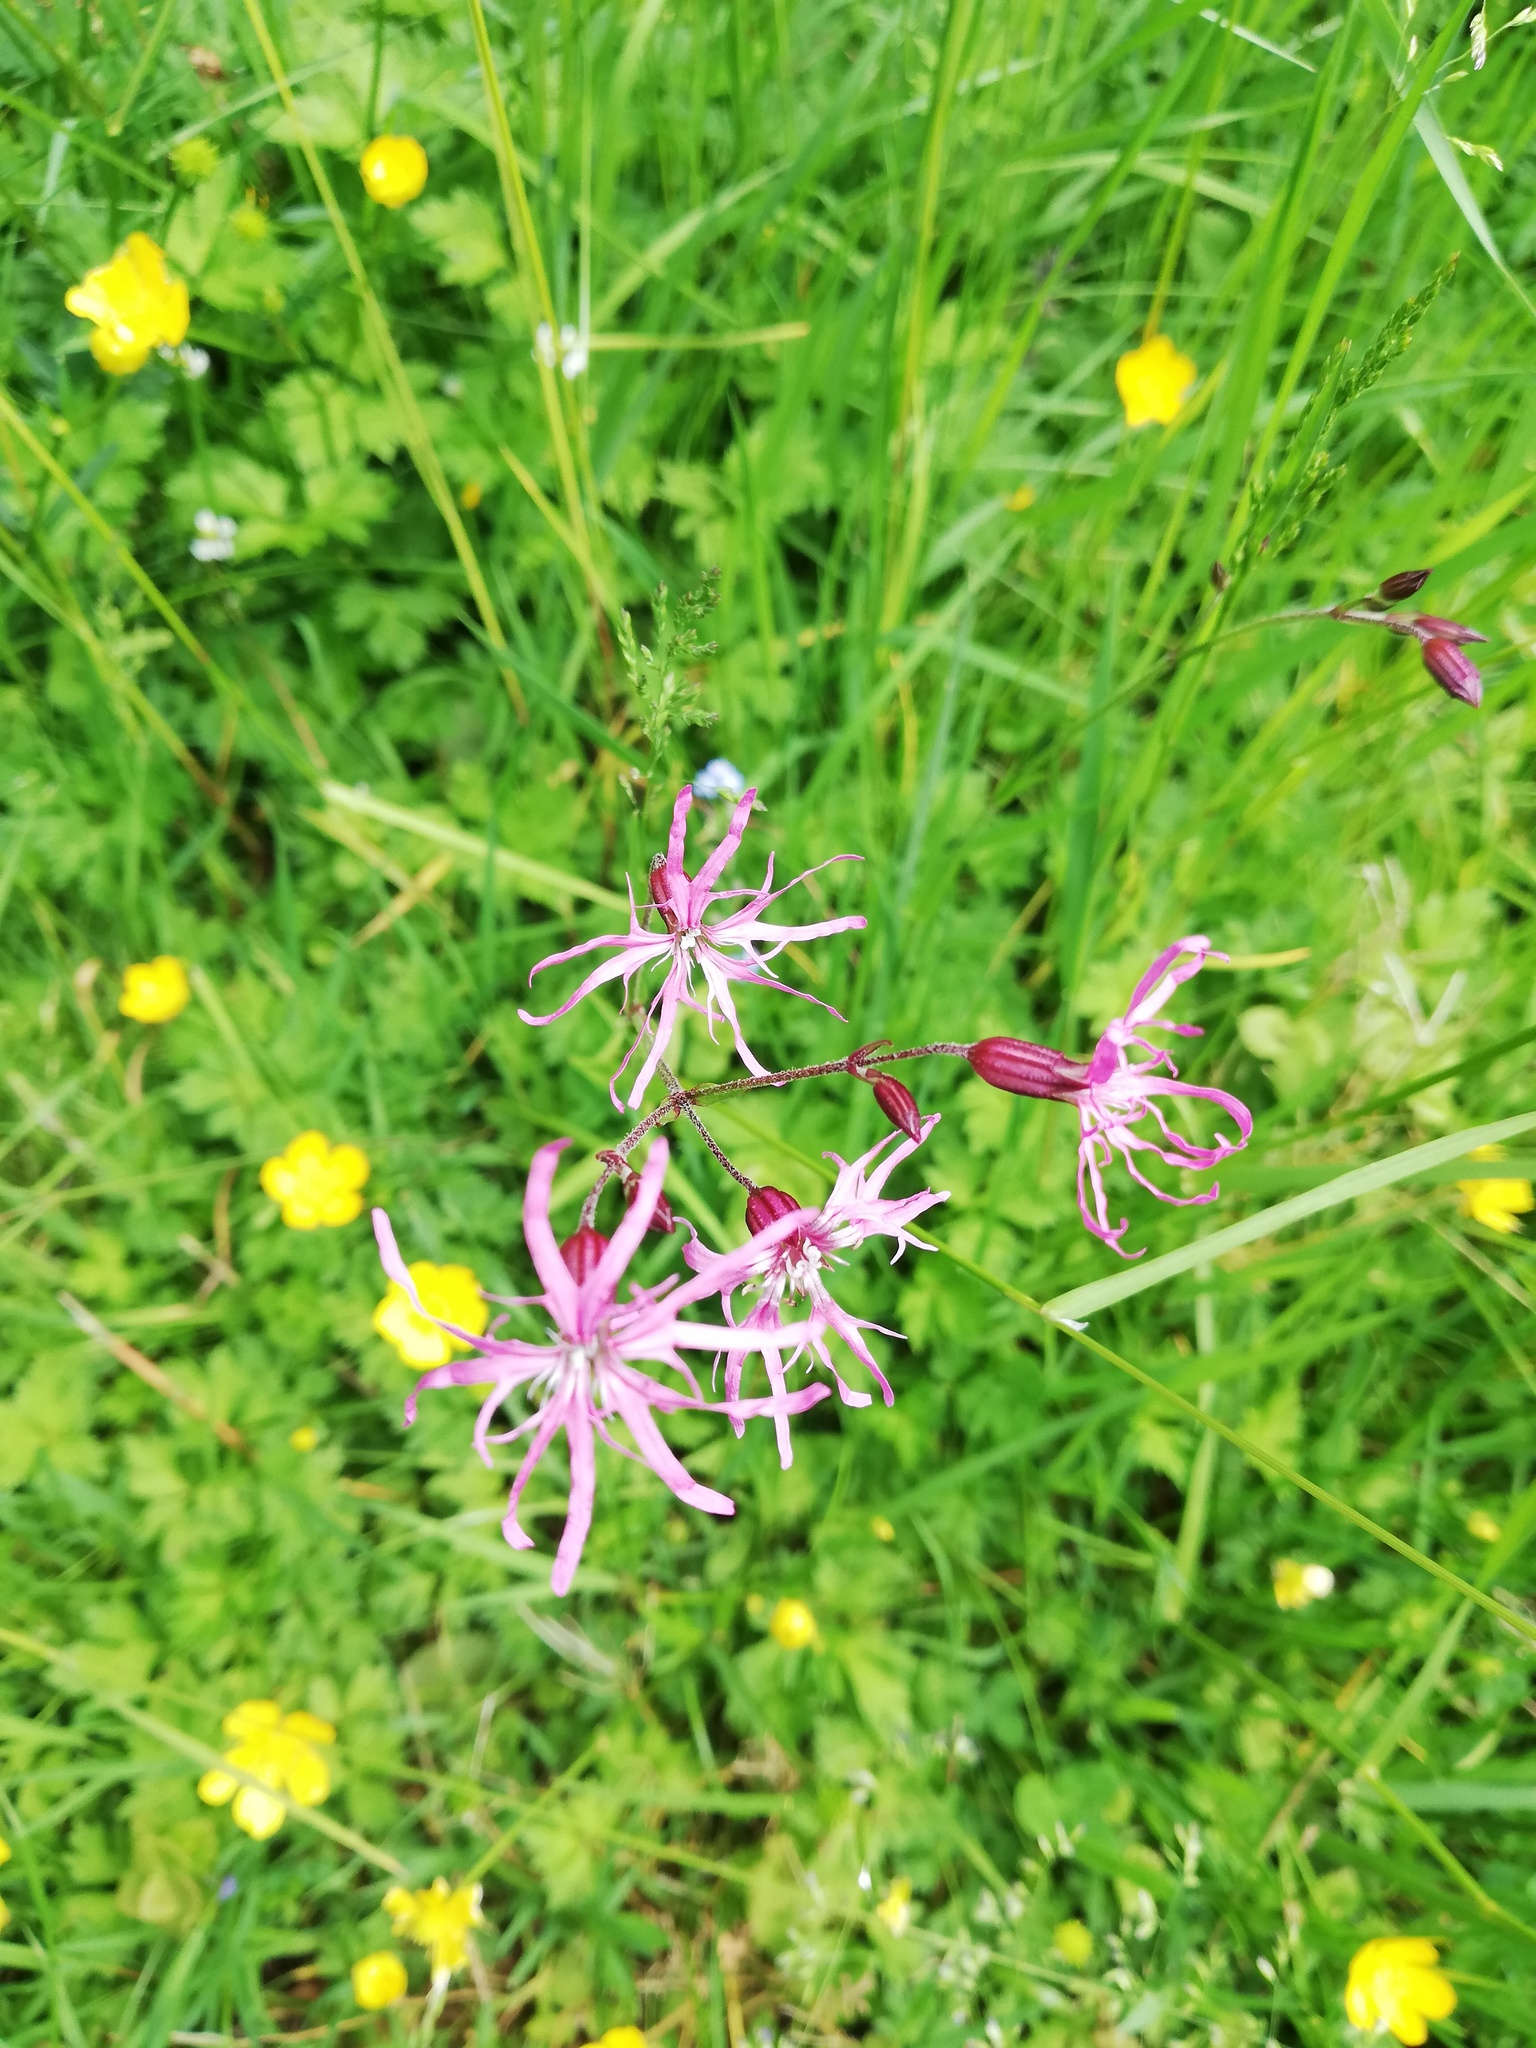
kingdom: Plantae
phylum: Tracheophyta
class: Magnoliopsida
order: Caryophyllales
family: Caryophyllaceae
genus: Silene
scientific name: Silene flos-cuculi
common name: Ragged-robin
